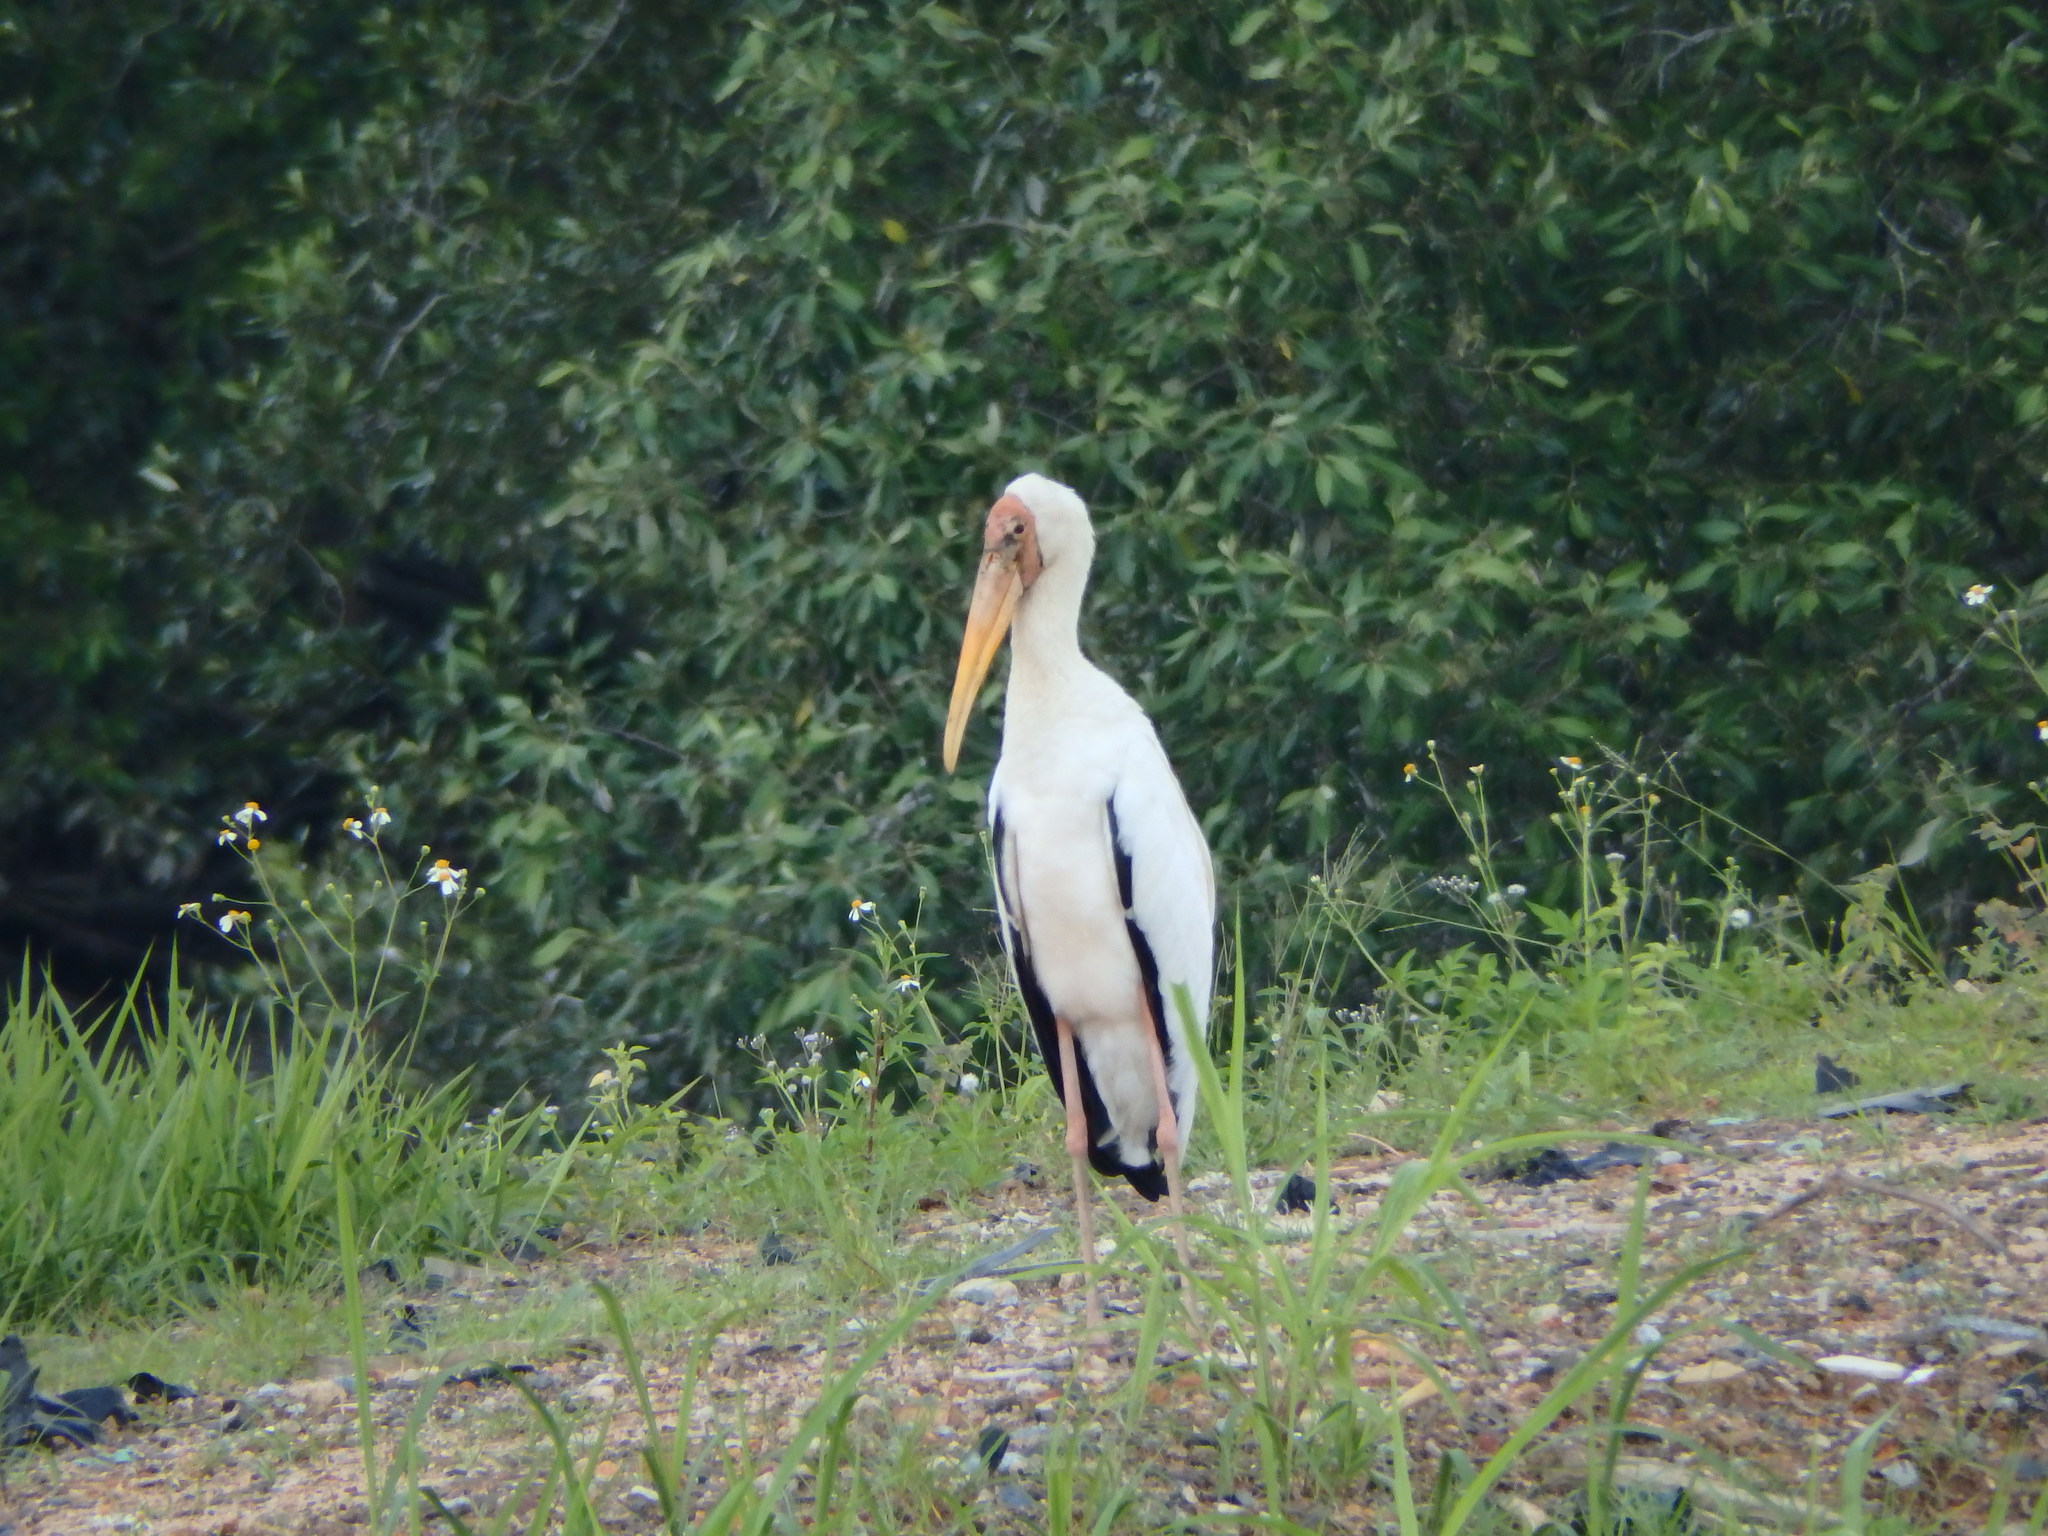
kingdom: Animalia
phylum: Chordata
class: Aves
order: Ciconiiformes
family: Ciconiidae
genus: Mycteria
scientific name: Mycteria cinerea
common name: Milky stork
